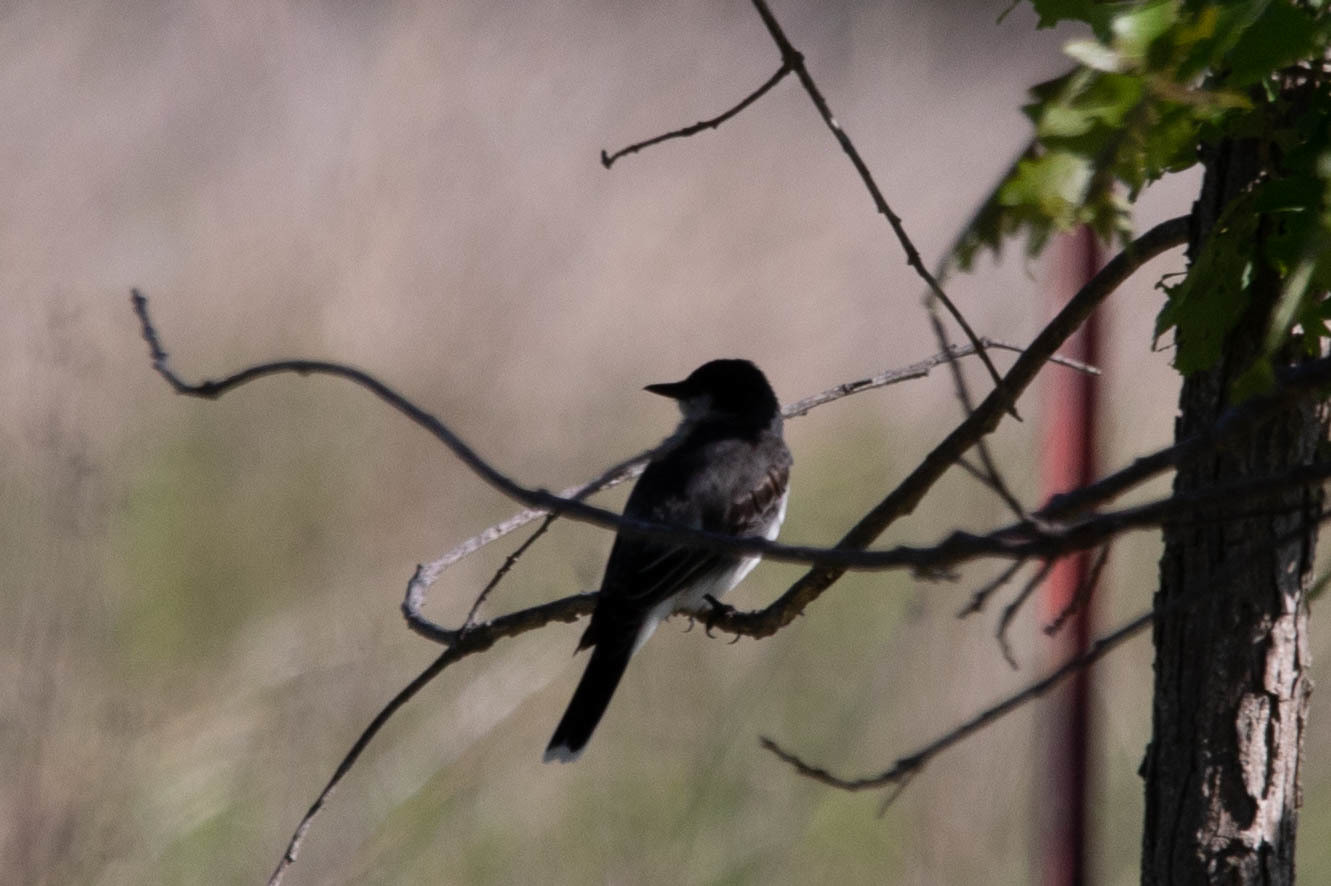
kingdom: Animalia
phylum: Chordata
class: Aves
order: Passeriformes
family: Tyrannidae
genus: Tyrannus
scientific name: Tyrannus tyrannus
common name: Eastern kingbird
